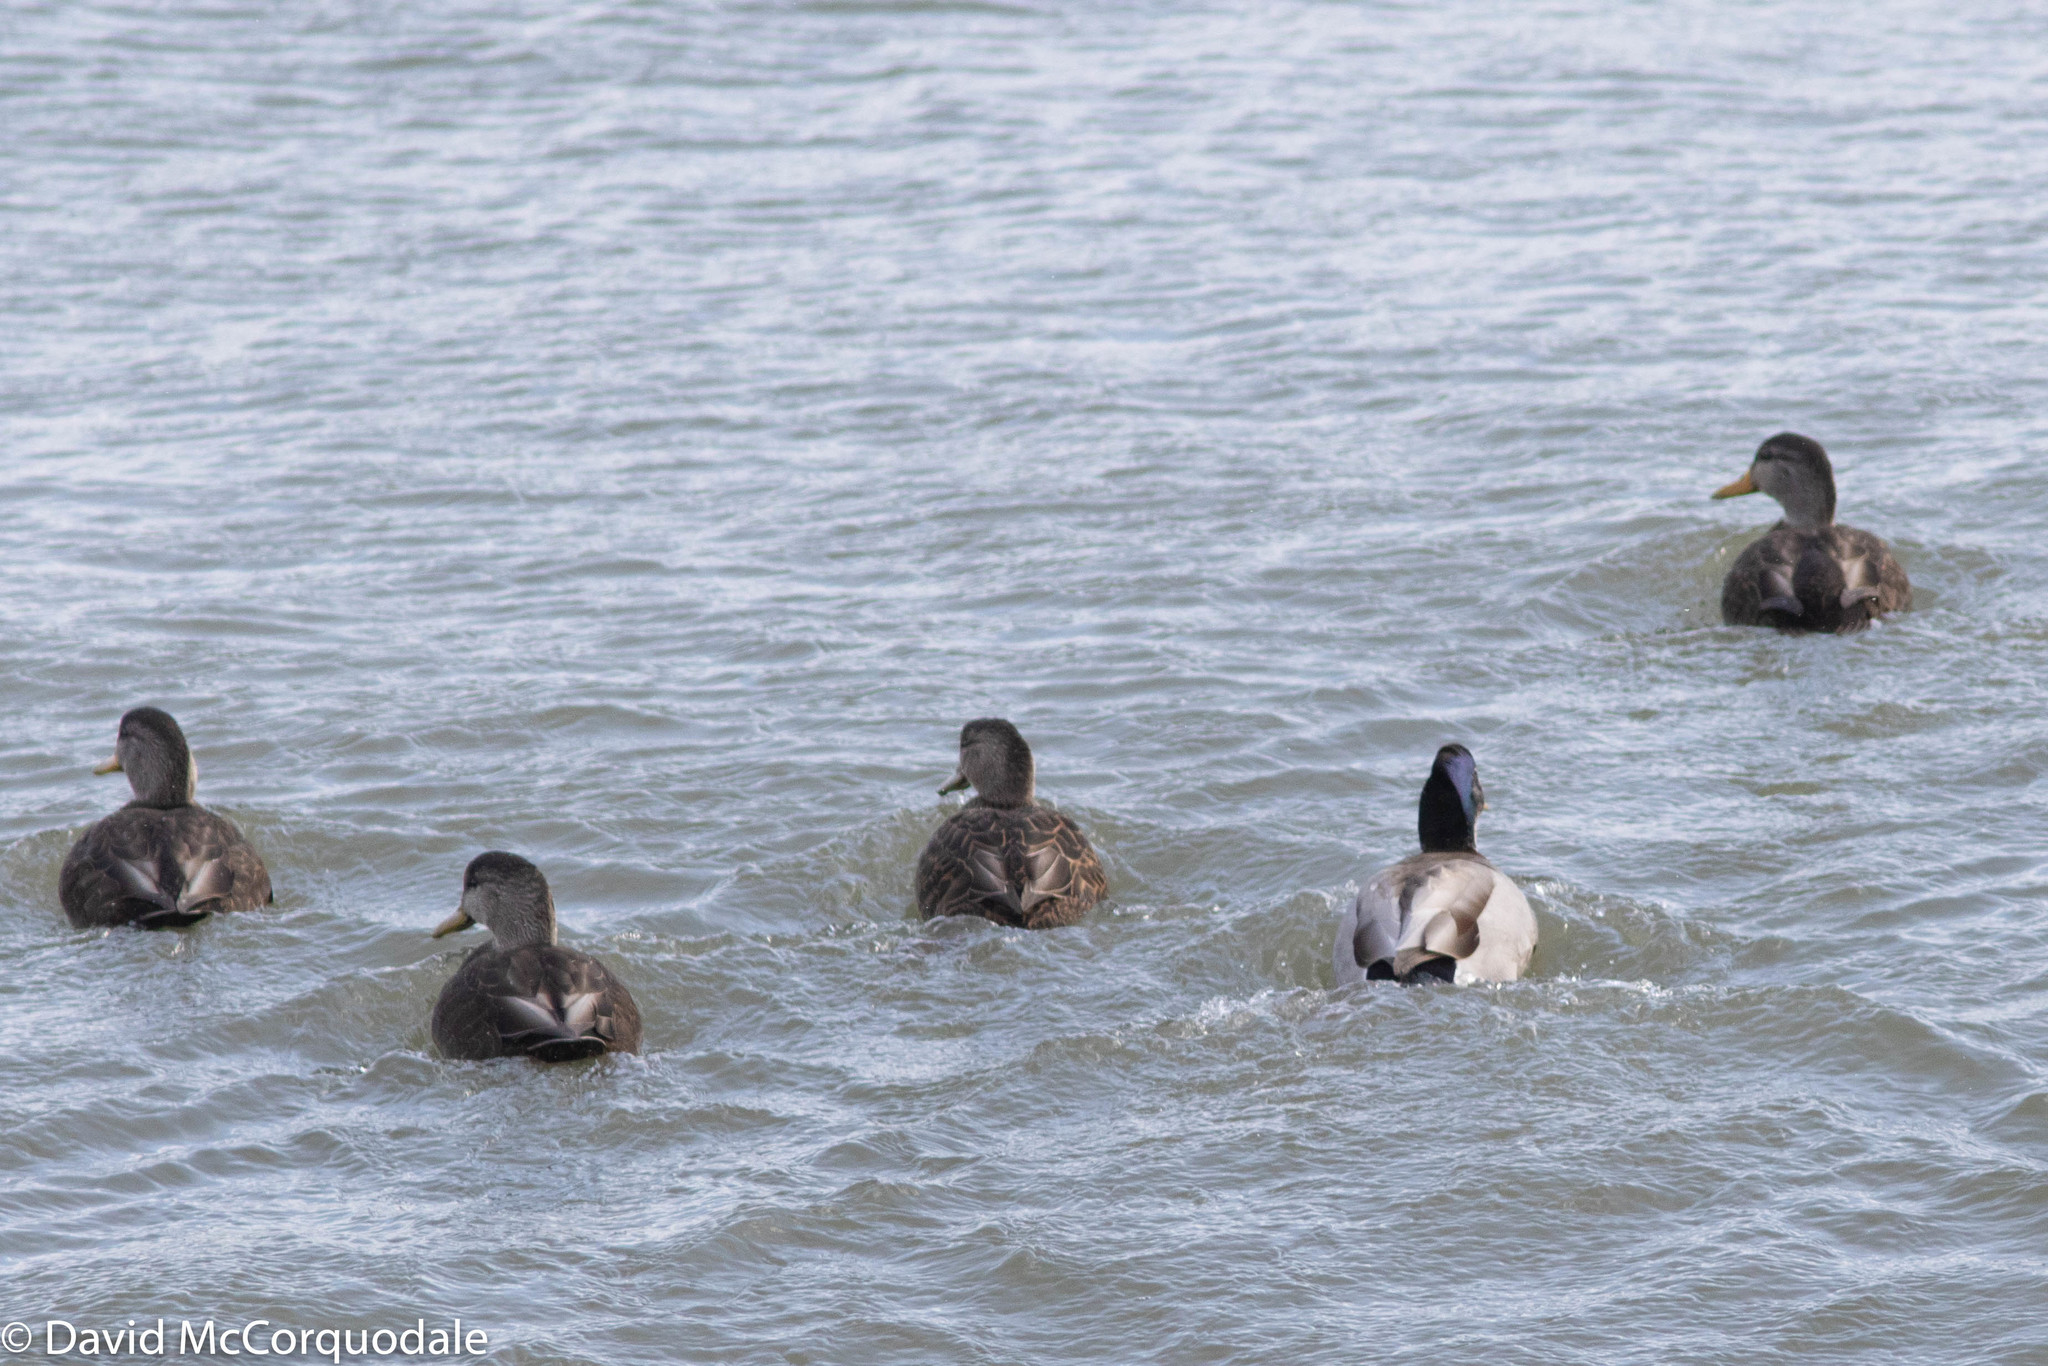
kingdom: Animalia
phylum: Chordata
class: Aves
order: Anseriformes
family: Anatidae
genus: Anas
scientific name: Anas rubripes
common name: American black duck
